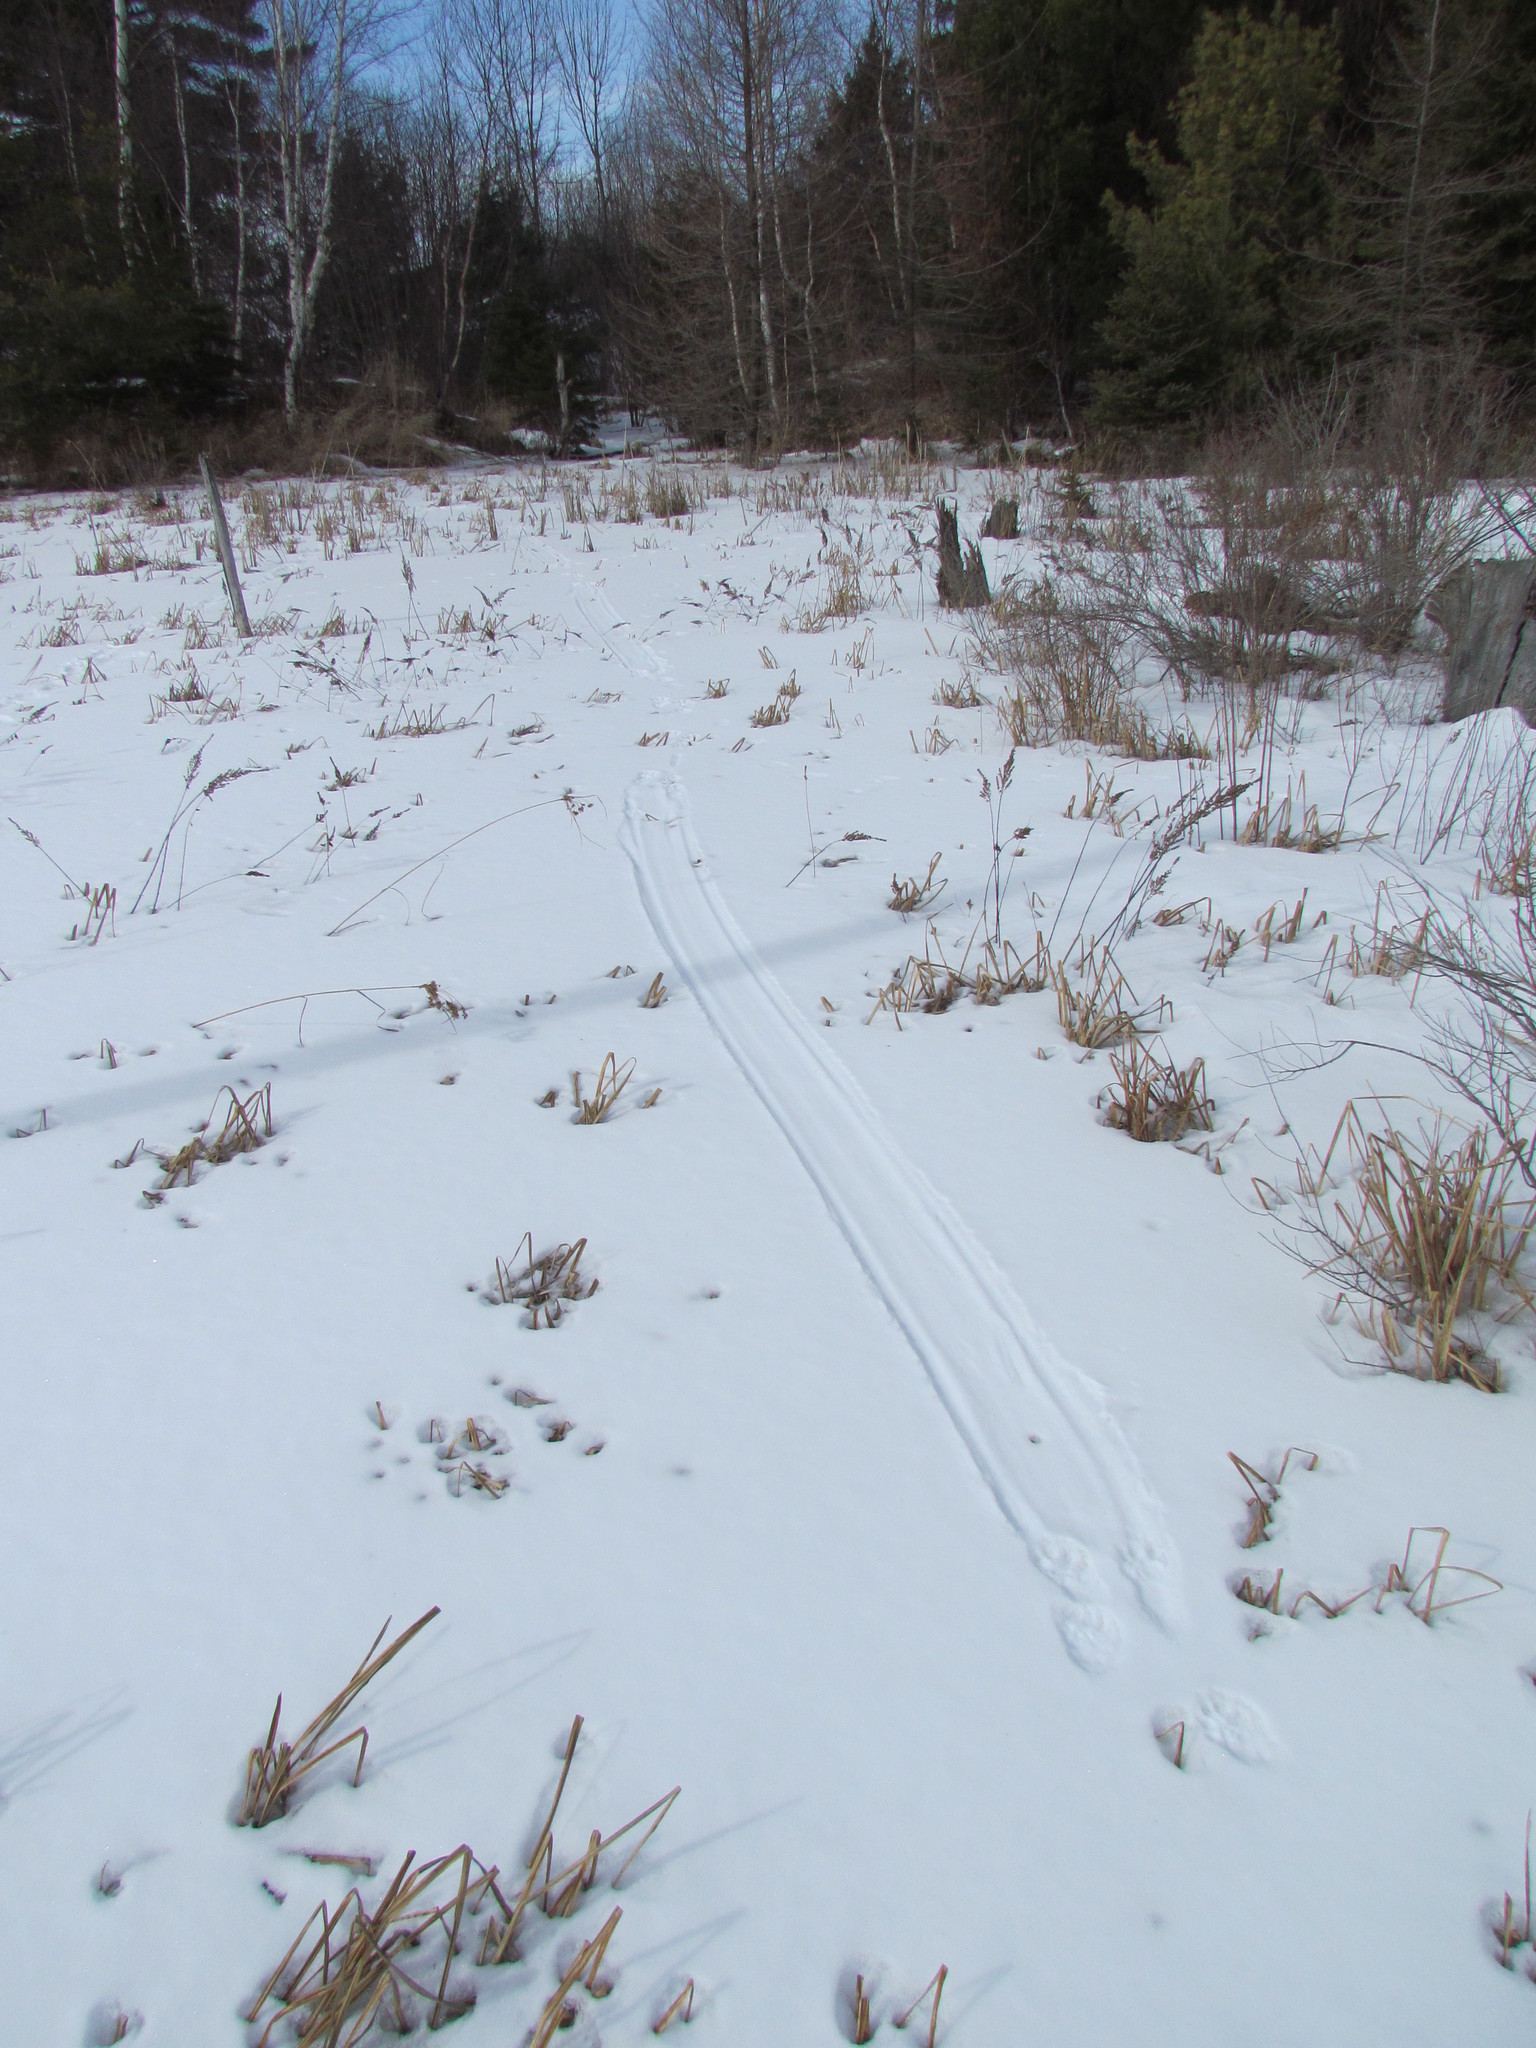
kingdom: Animalia
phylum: Chordata
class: Mammalia
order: Carnivora
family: Mustelidae
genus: Lontra
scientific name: Lontra canadensis
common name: North american river otter
